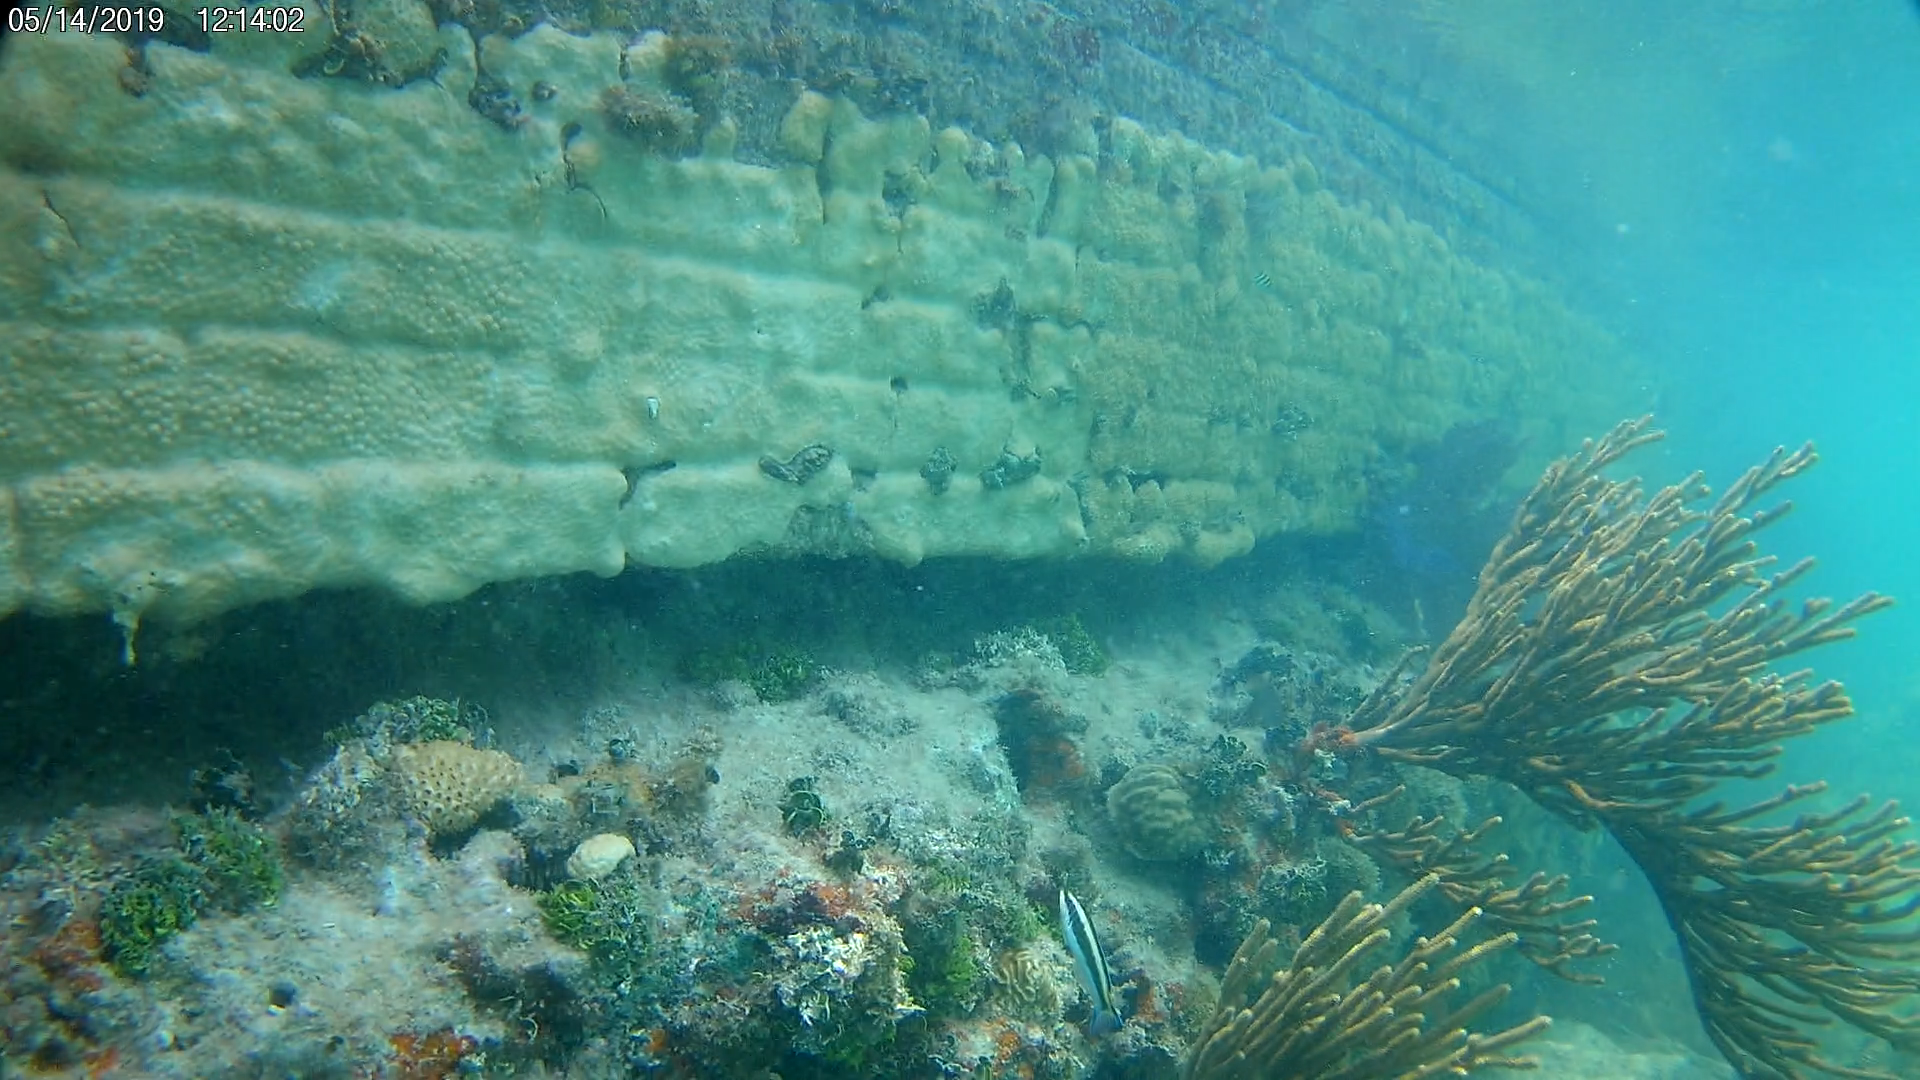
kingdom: Animalia
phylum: Chordata
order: Perciformes
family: Labridae
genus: Thalassoma
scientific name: Thalassoma bifasciatum
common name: Bluehead wrasse
